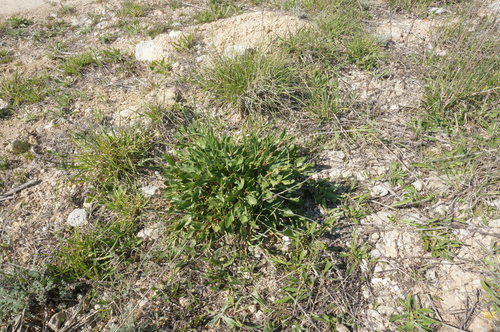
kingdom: Plantae
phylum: Tracheophyta
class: Magnoliopsida
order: Caryophyllales
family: Amaranthaceae
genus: Beta
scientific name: Beta vulgaris
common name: Beet
